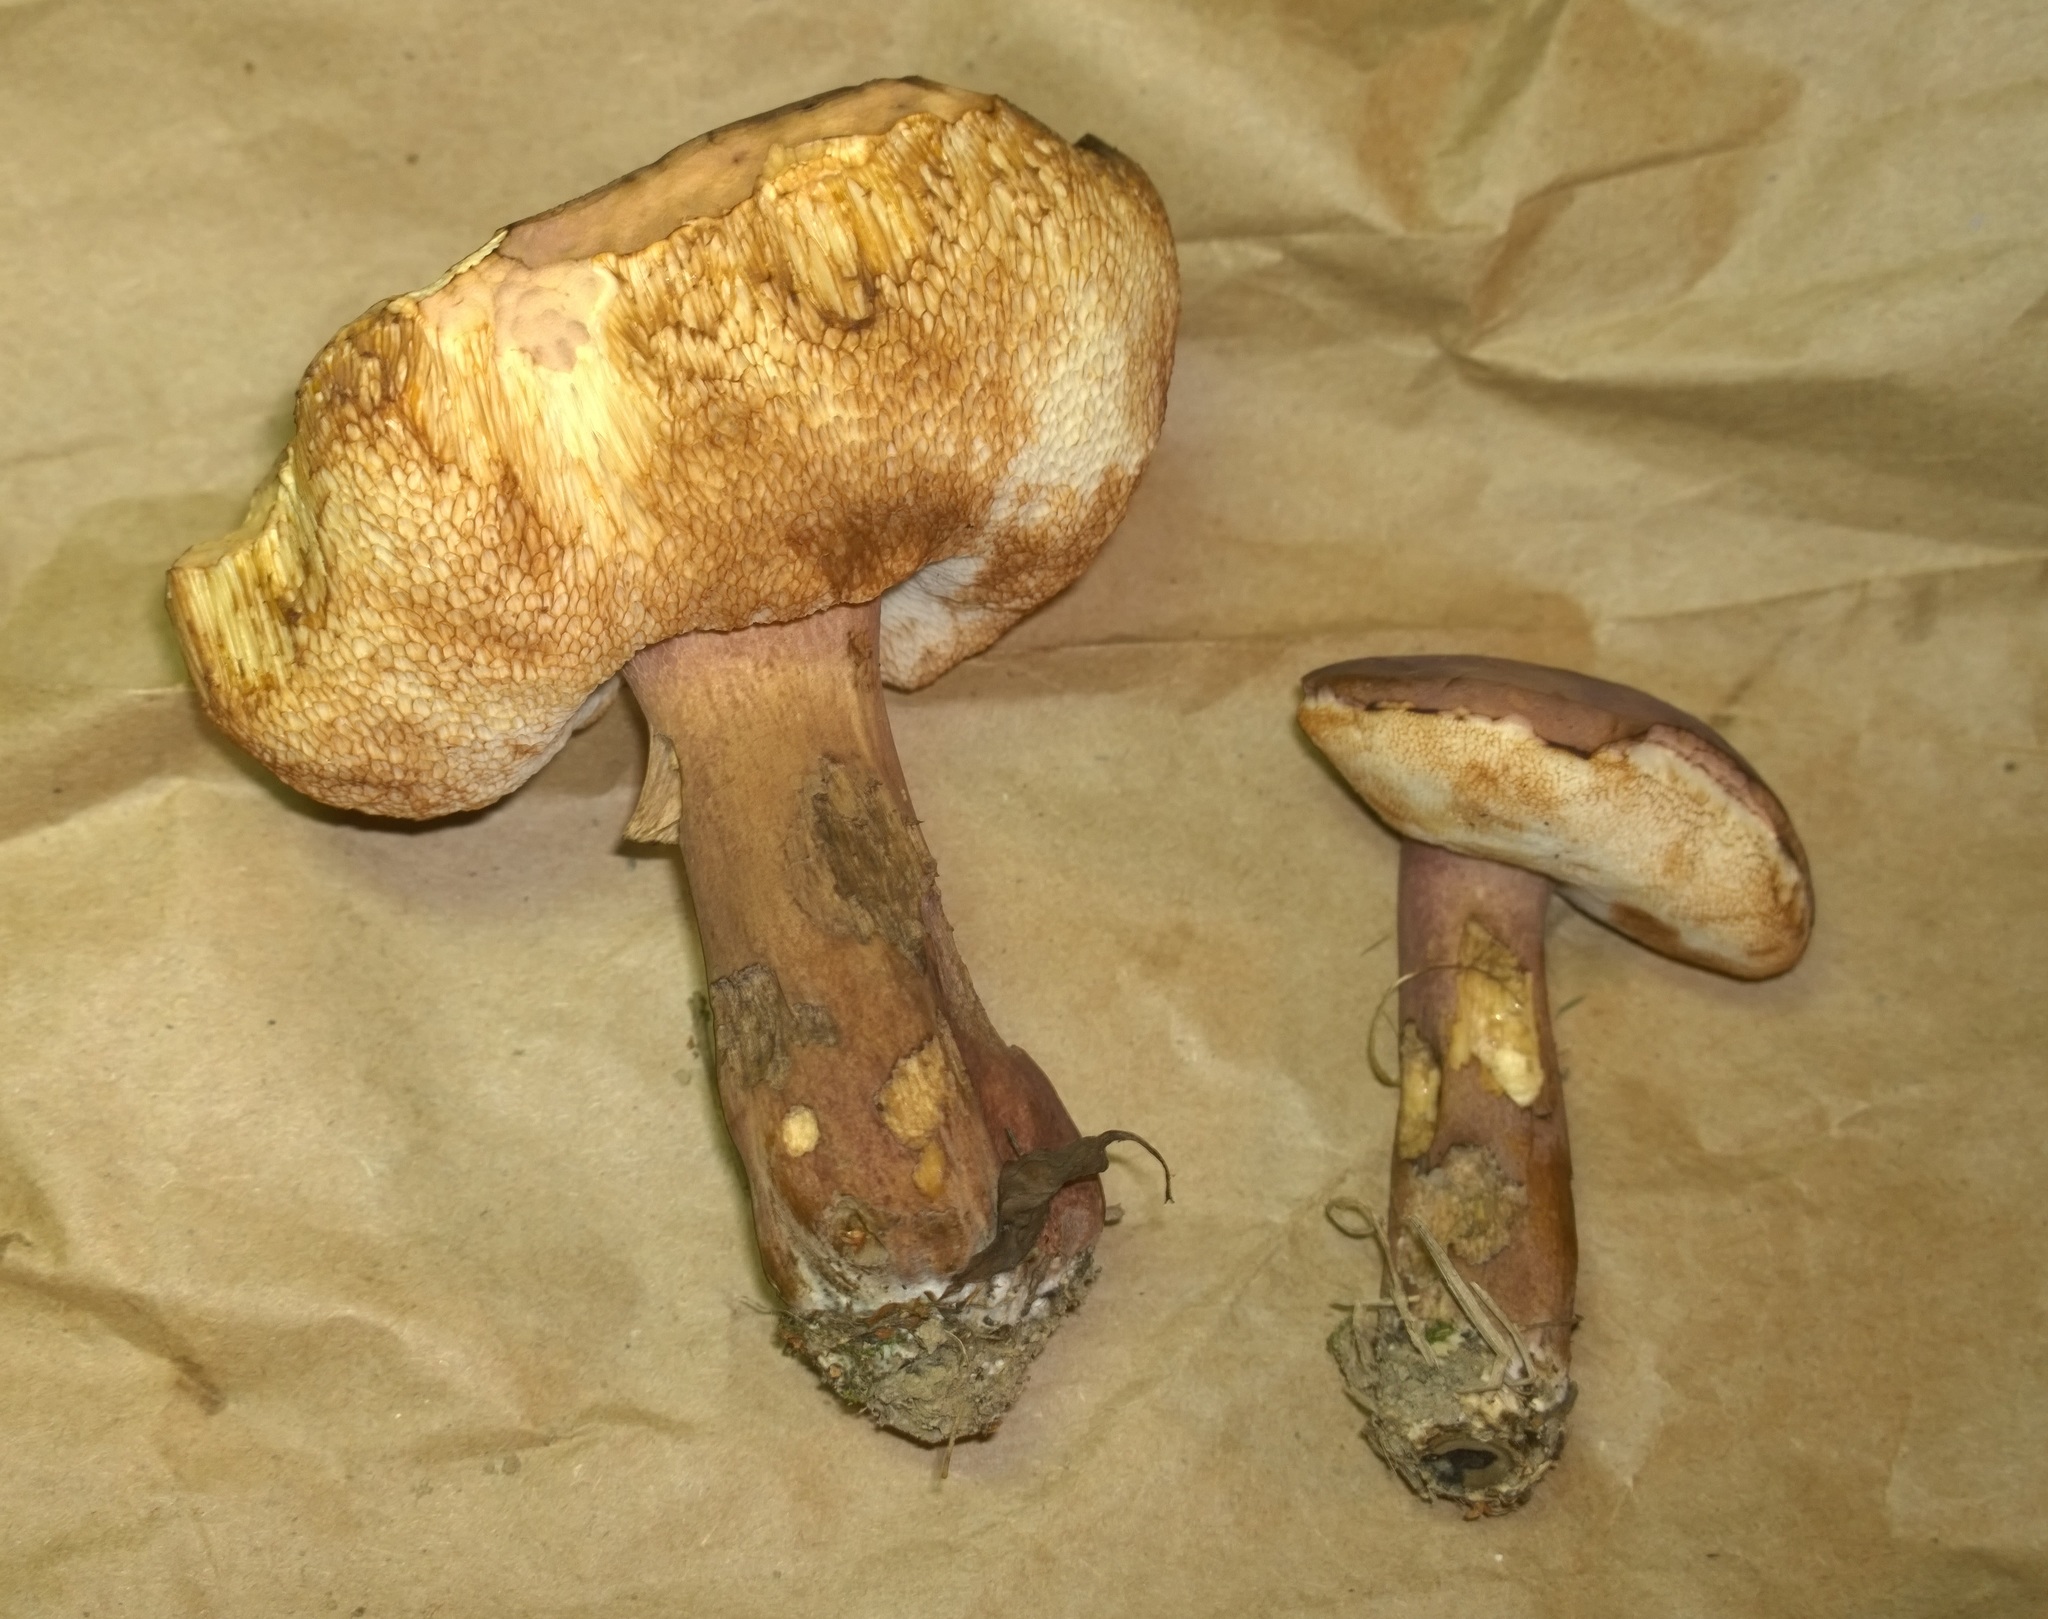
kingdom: Fungi
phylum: Basidiomycota
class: Agaricomycetes
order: Boletales
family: Boletaceae
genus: Tylopilus
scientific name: Tylopilus badiceps
